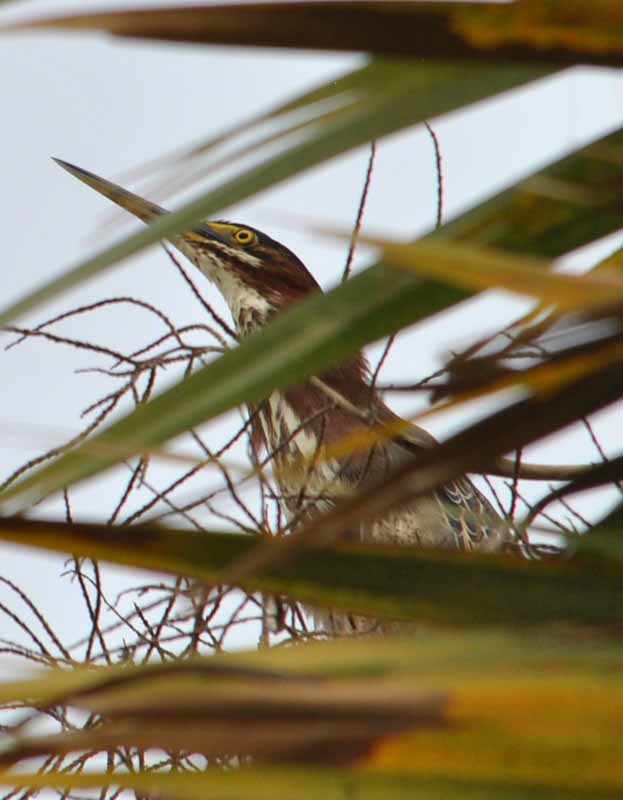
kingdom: Animalia
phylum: Chordata
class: Aves
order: Pelecaniformes
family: Ardeidae
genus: Butorides
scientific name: Butorides virescens
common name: Green heron
